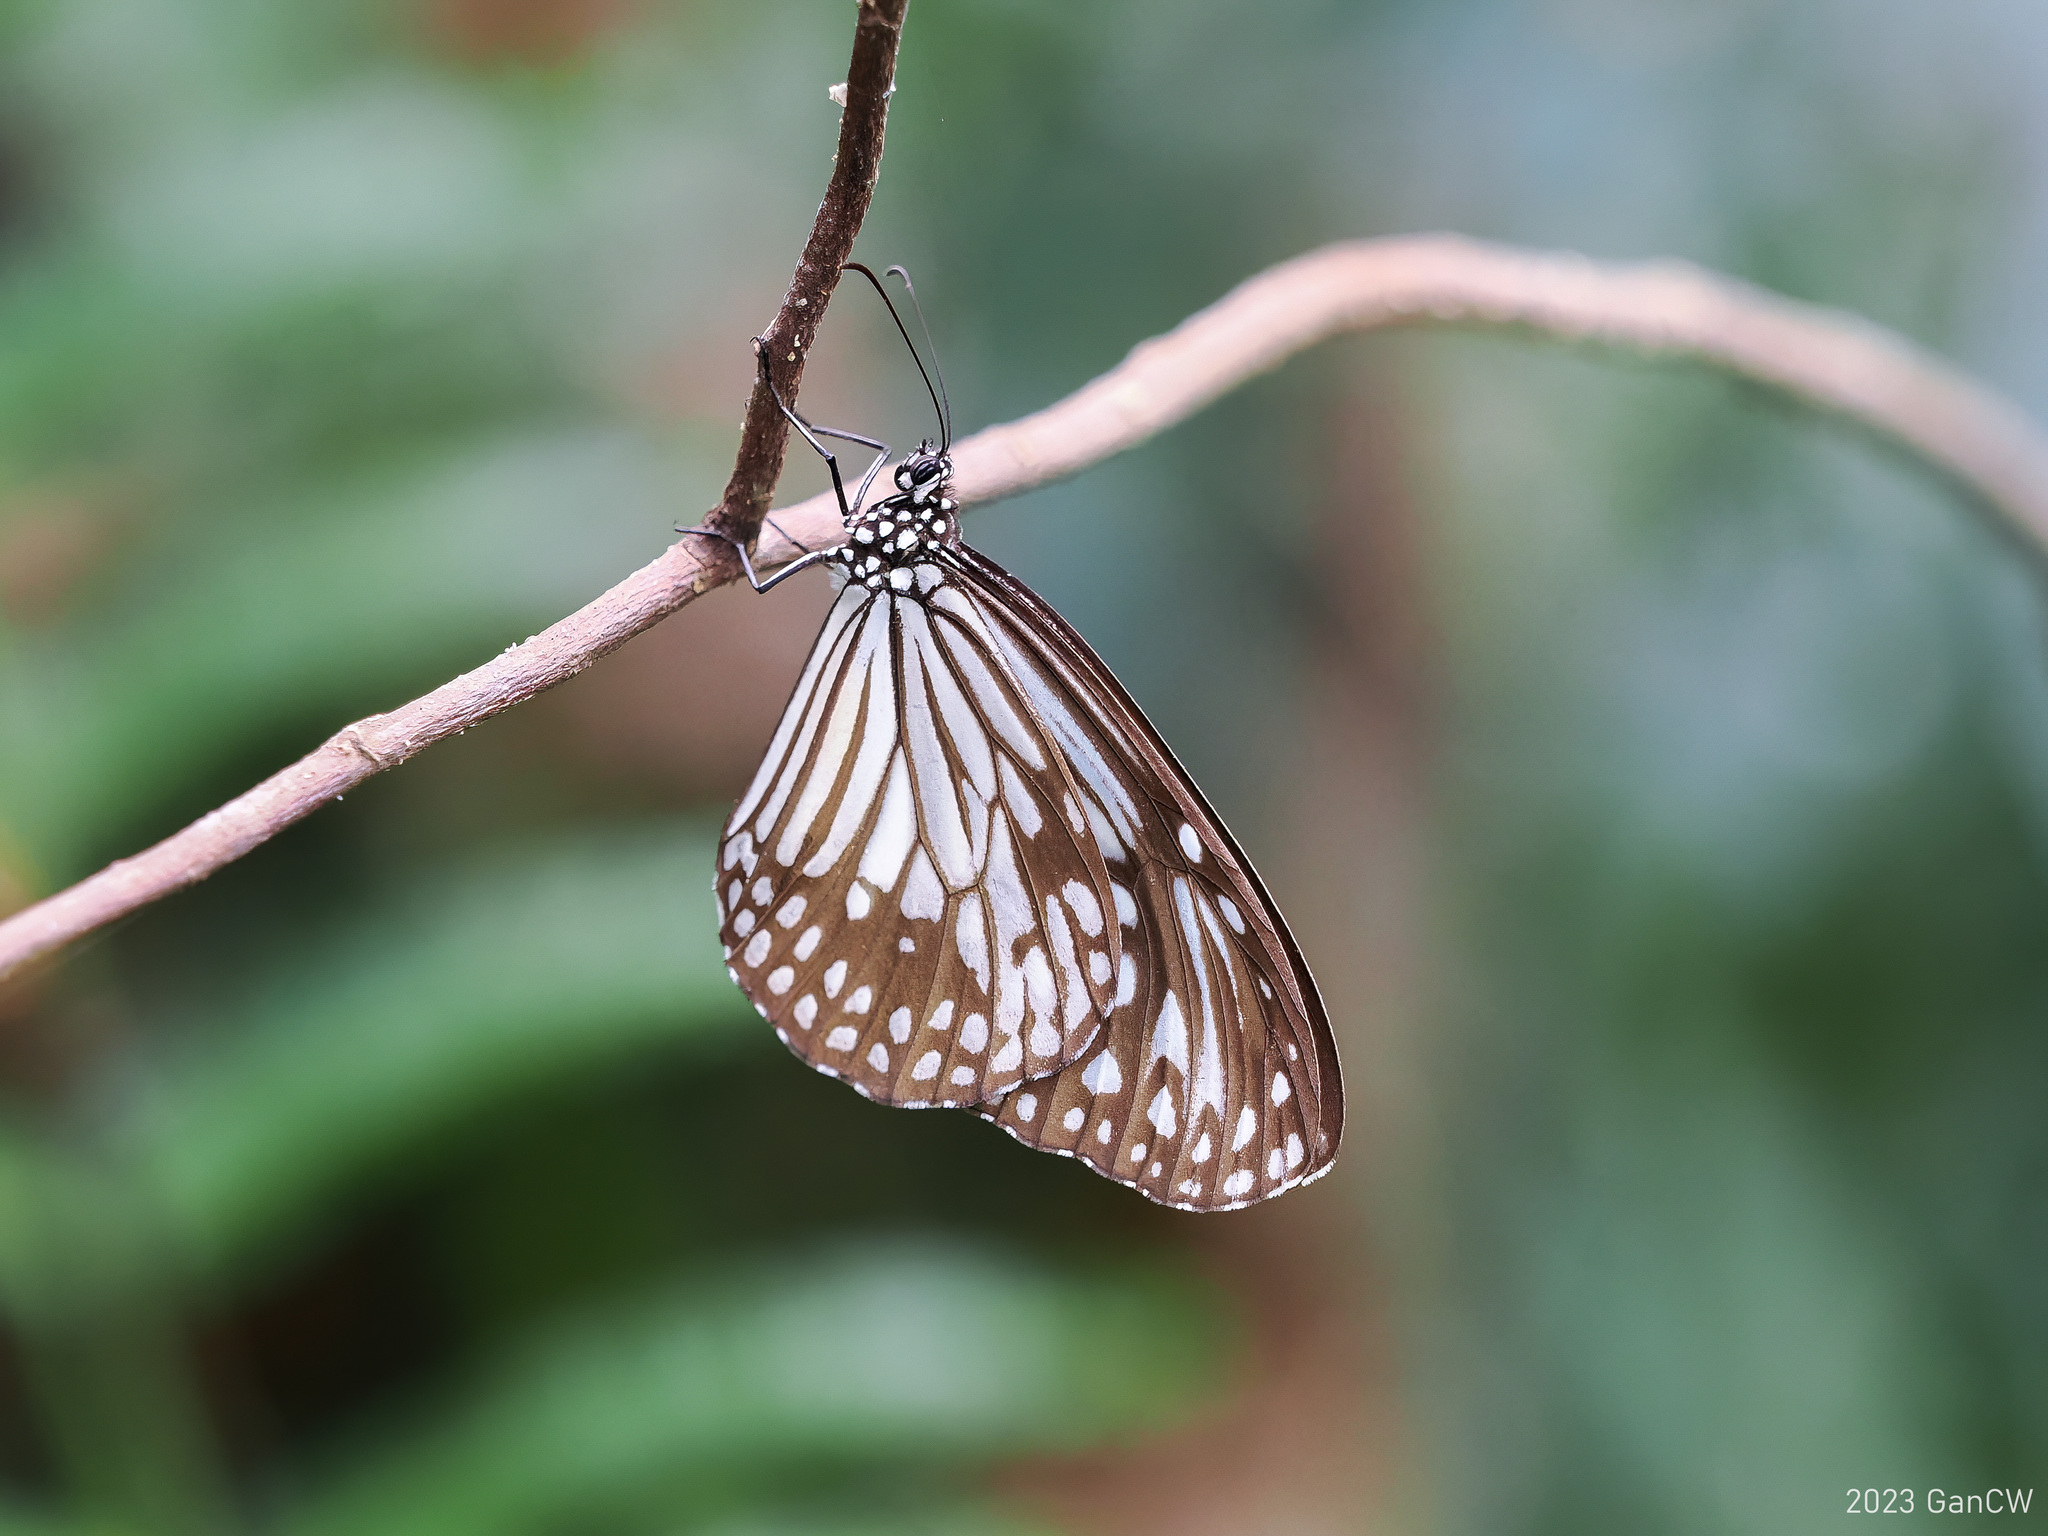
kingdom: Animalia
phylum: Arthropoda
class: Insecta
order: Lepidoptera
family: Nymphalidae
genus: Parantica
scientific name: Parantica aglea
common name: Glassy tiger
